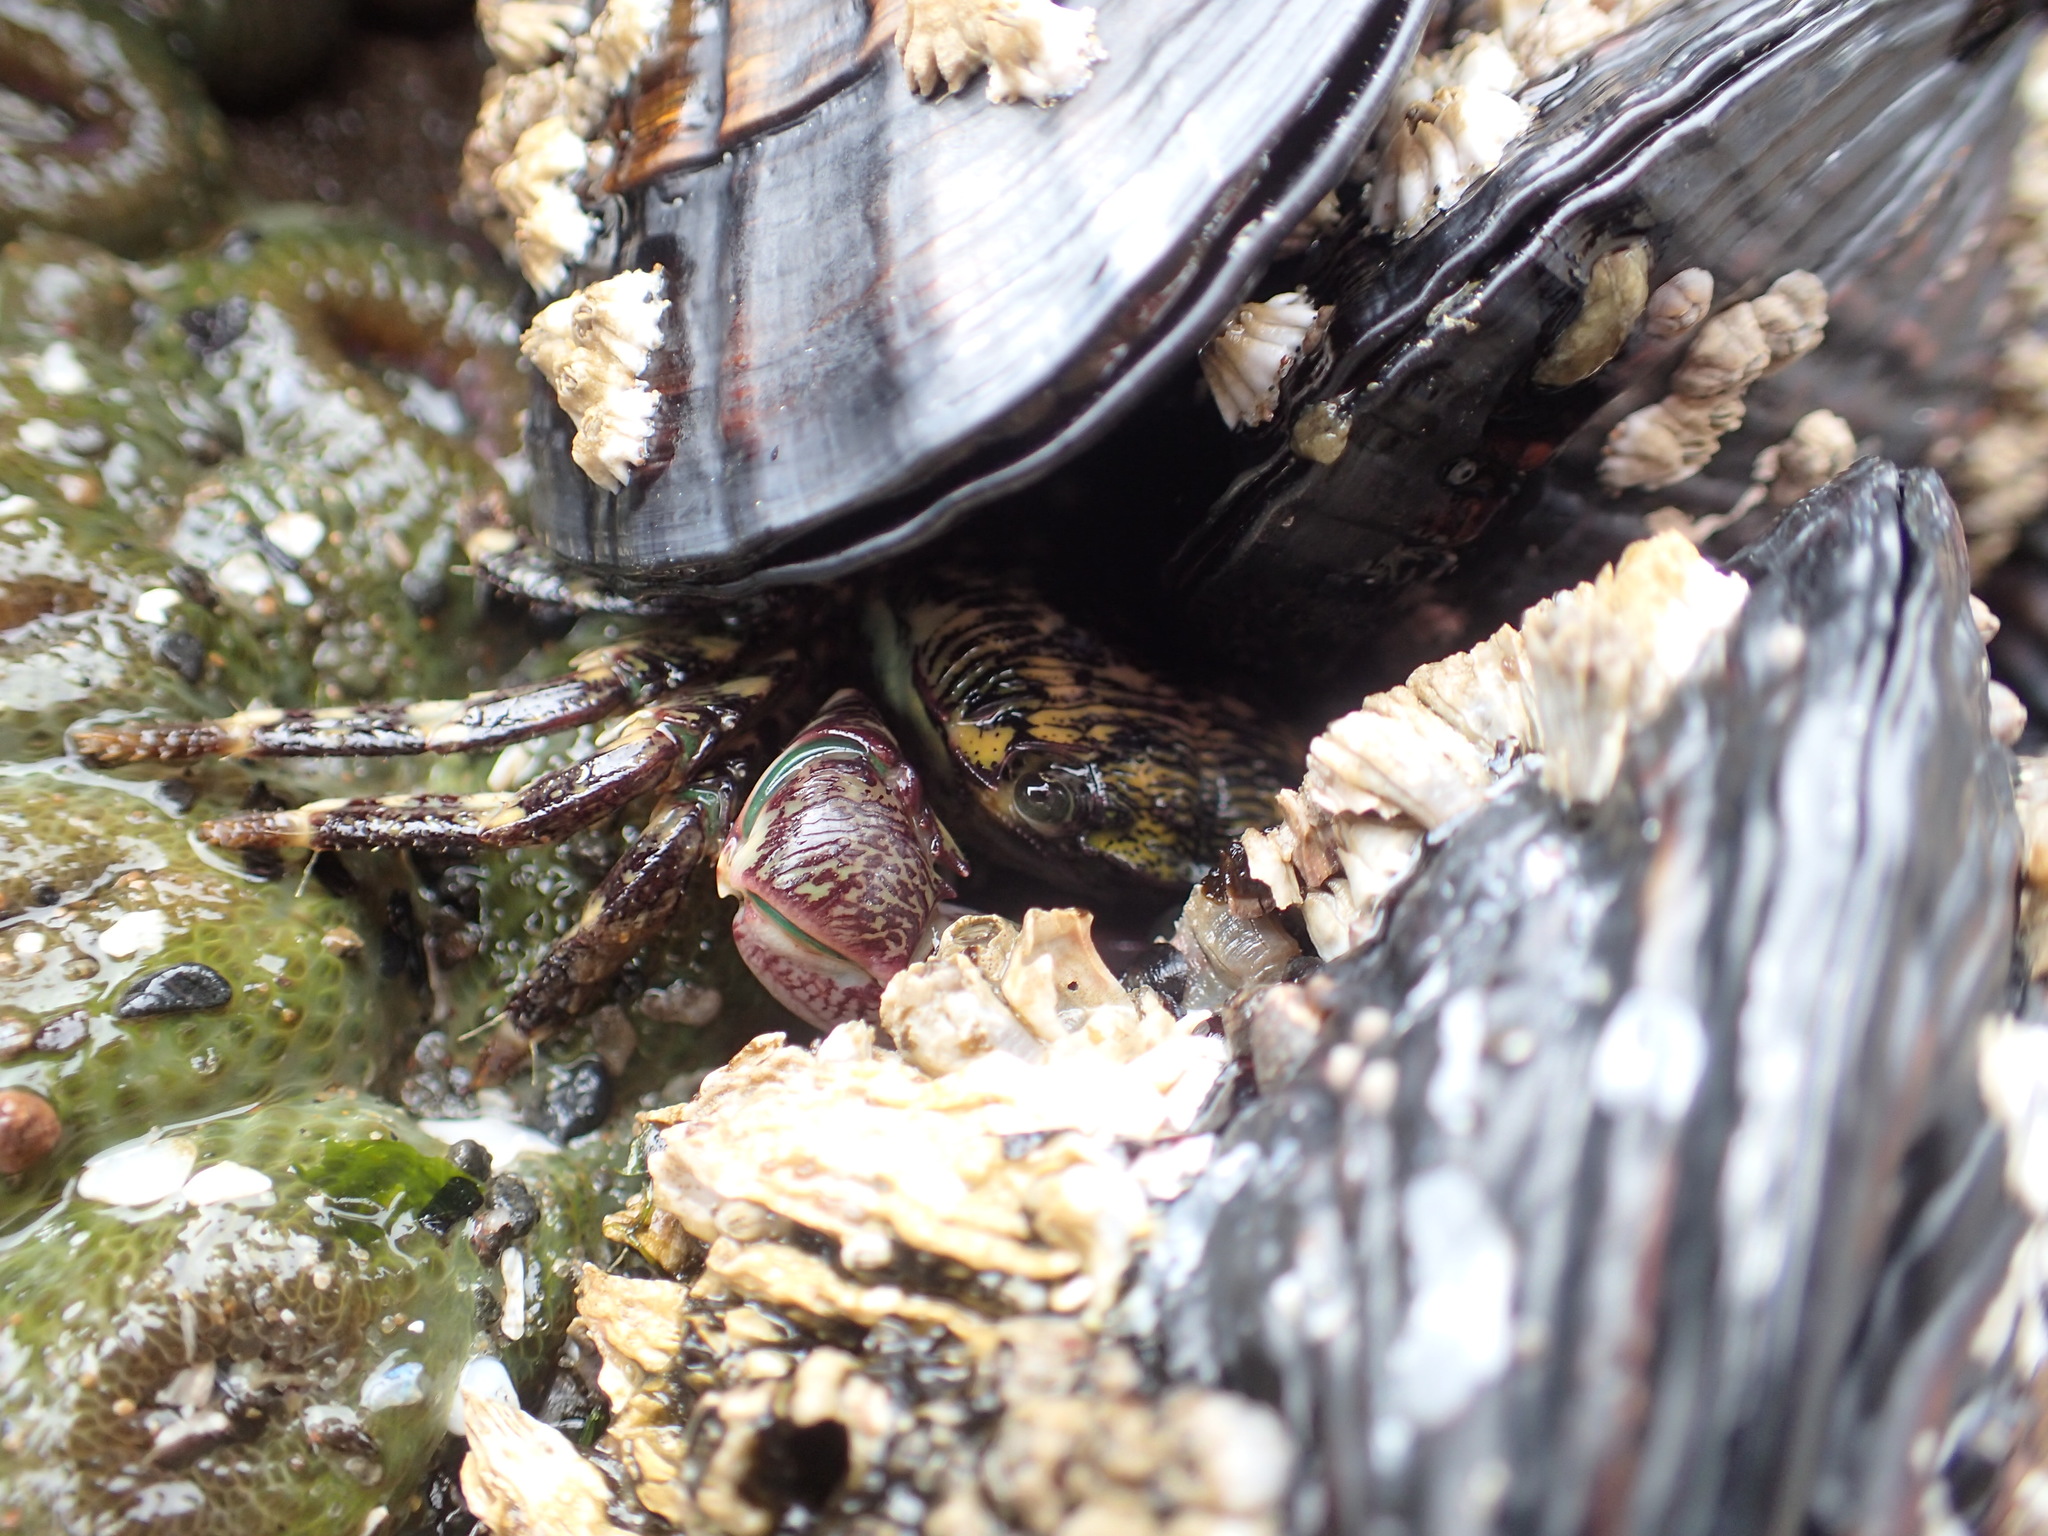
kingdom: Animalia
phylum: Arthropoda
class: Malacostraca
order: Decapoda
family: Grapsidae
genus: Pachygrapsus
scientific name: Pachygrapsus crassipes
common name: Striped shore crab
